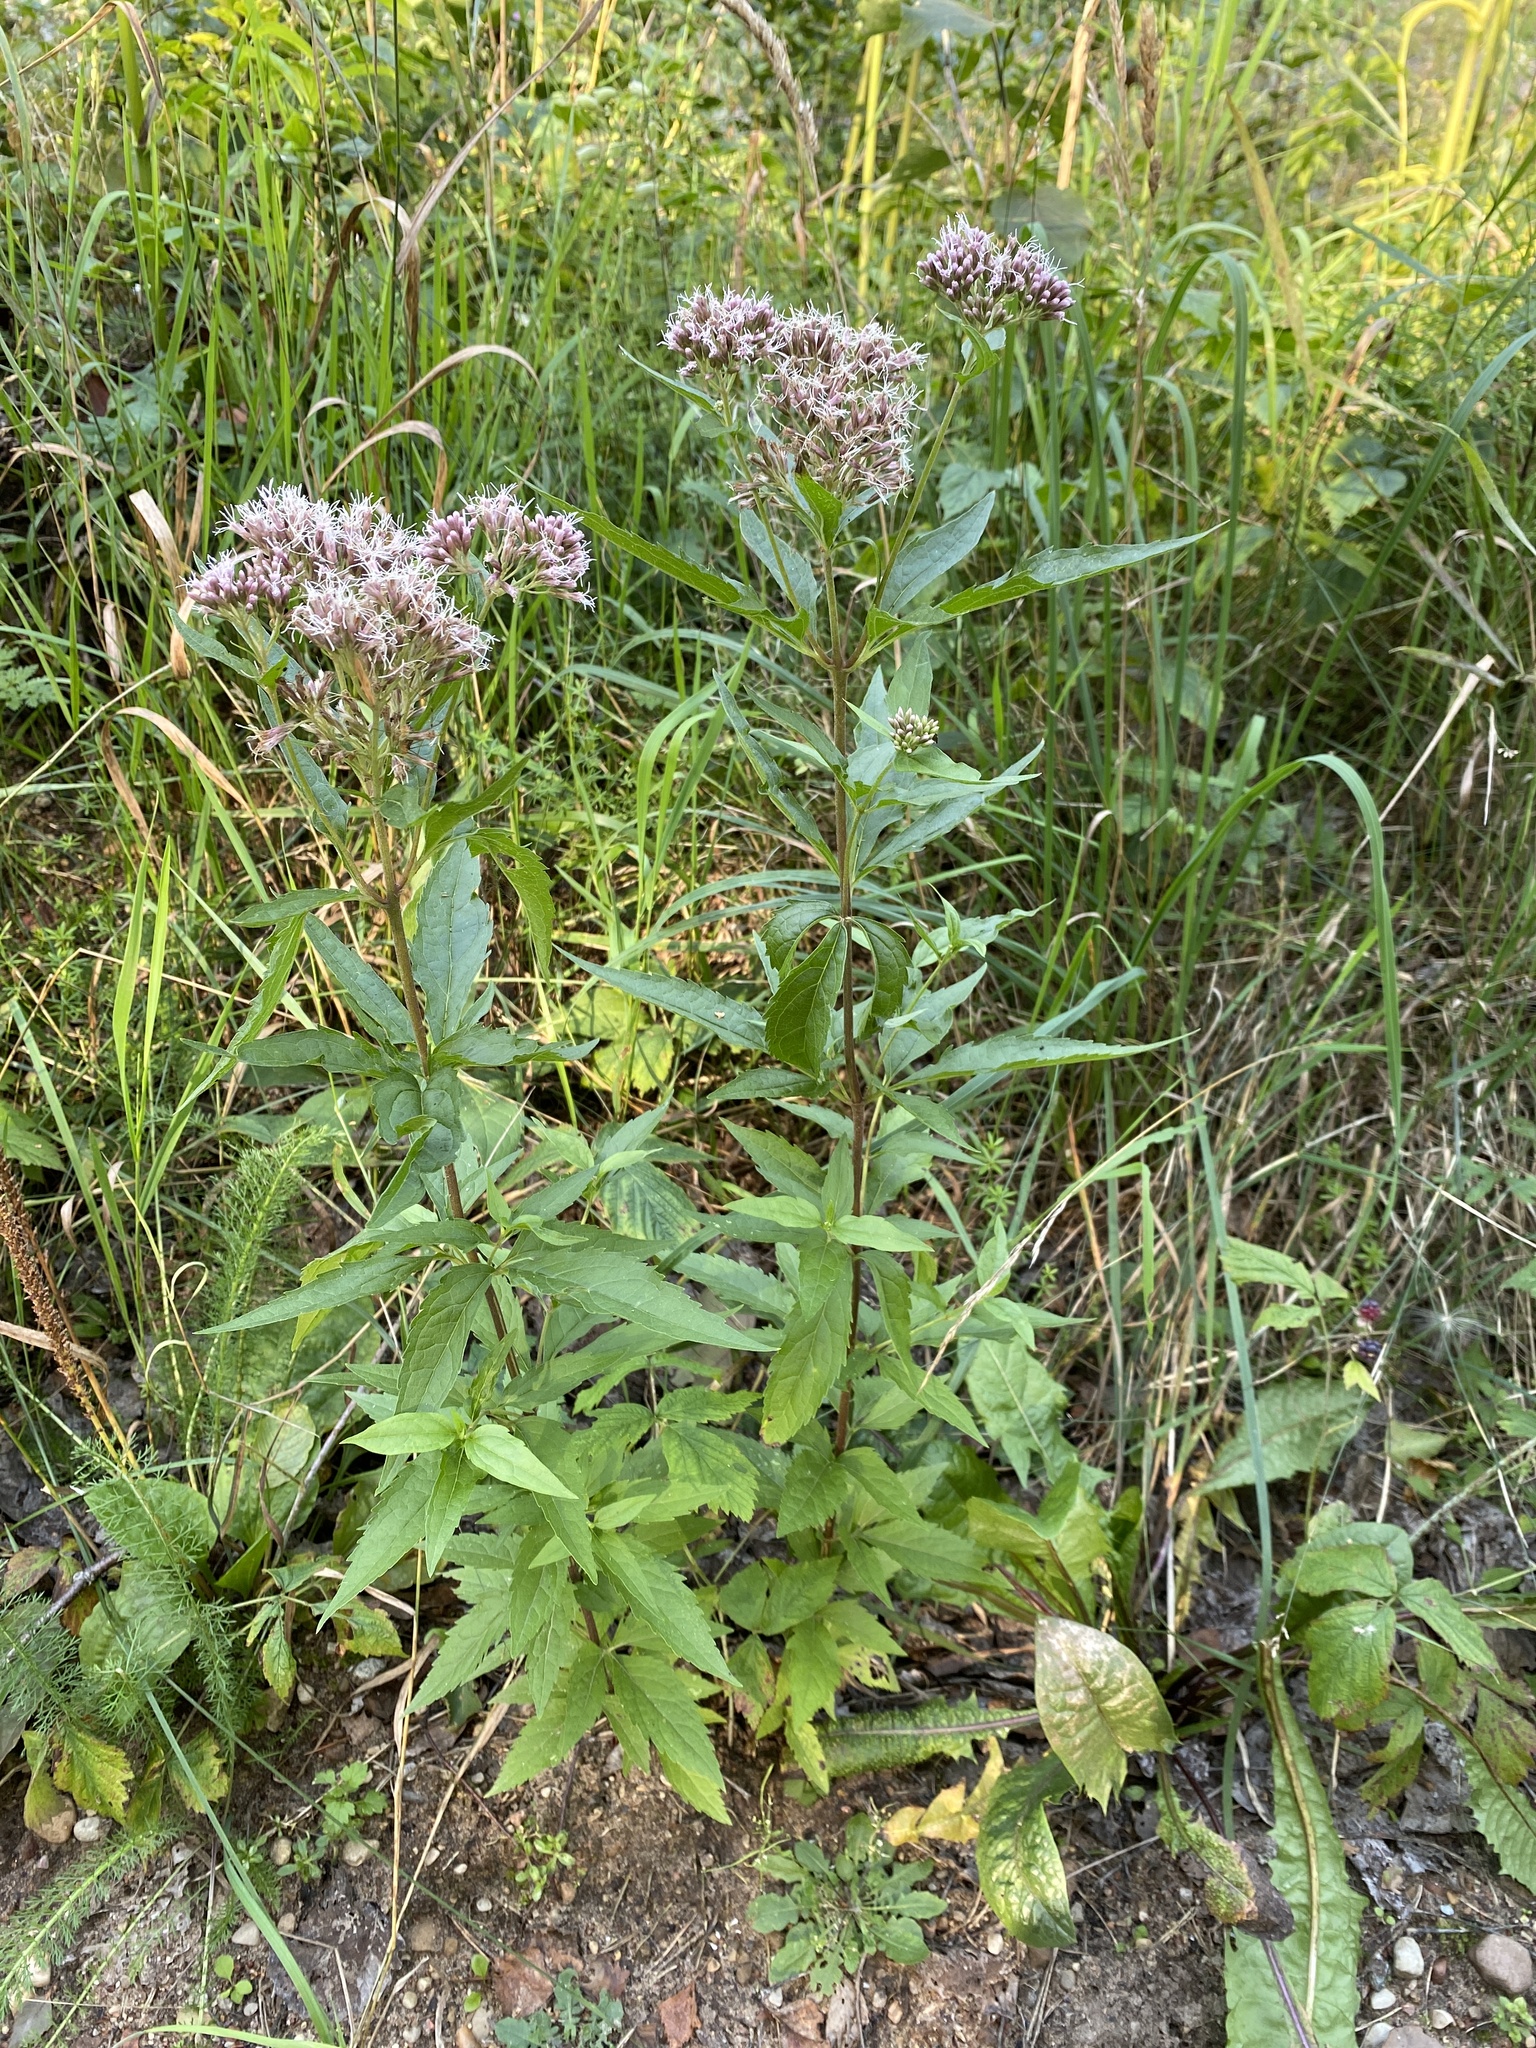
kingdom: Plantae
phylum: Tracheophyta
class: Magnoliopsida
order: Asterales
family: Asteraceae
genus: Eupatorium
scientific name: Eupatorium cannabinum
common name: Hemp-agrimony
